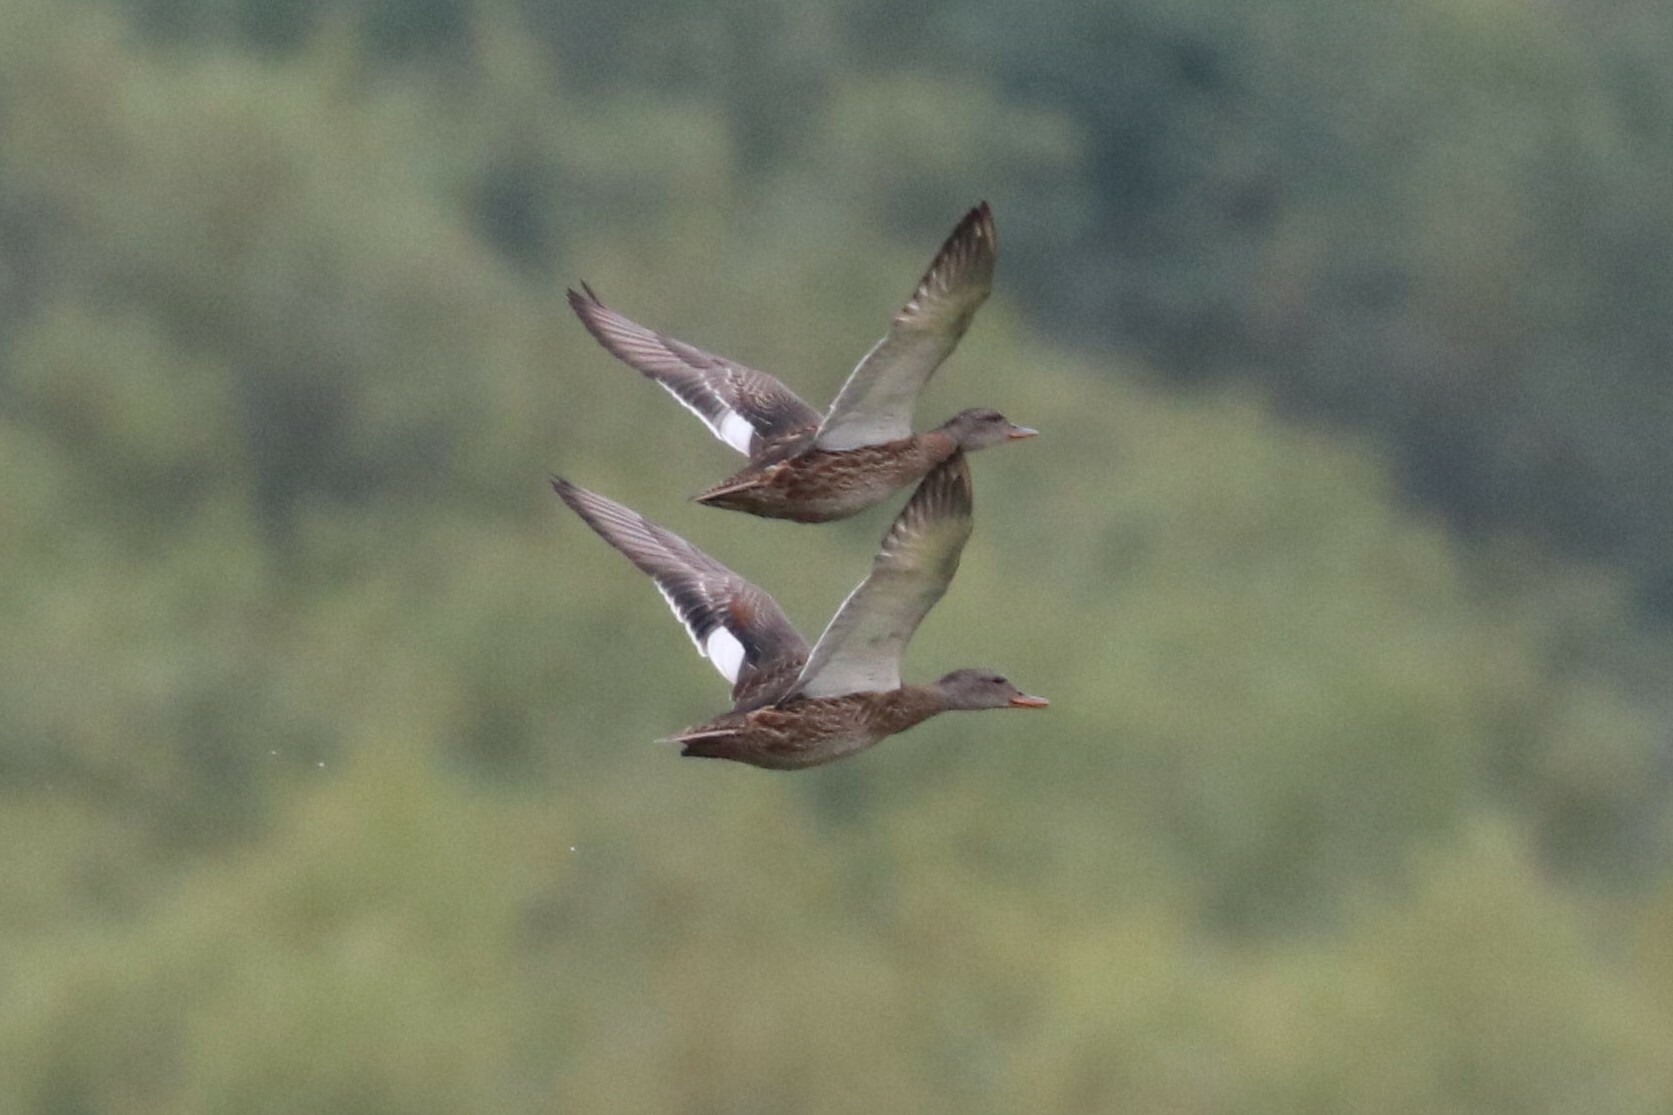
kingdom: Animalia
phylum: Chordata
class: Aves
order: Anseriformes
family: Anatidae
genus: Mareca
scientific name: Mareca strepera
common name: Gadwall
